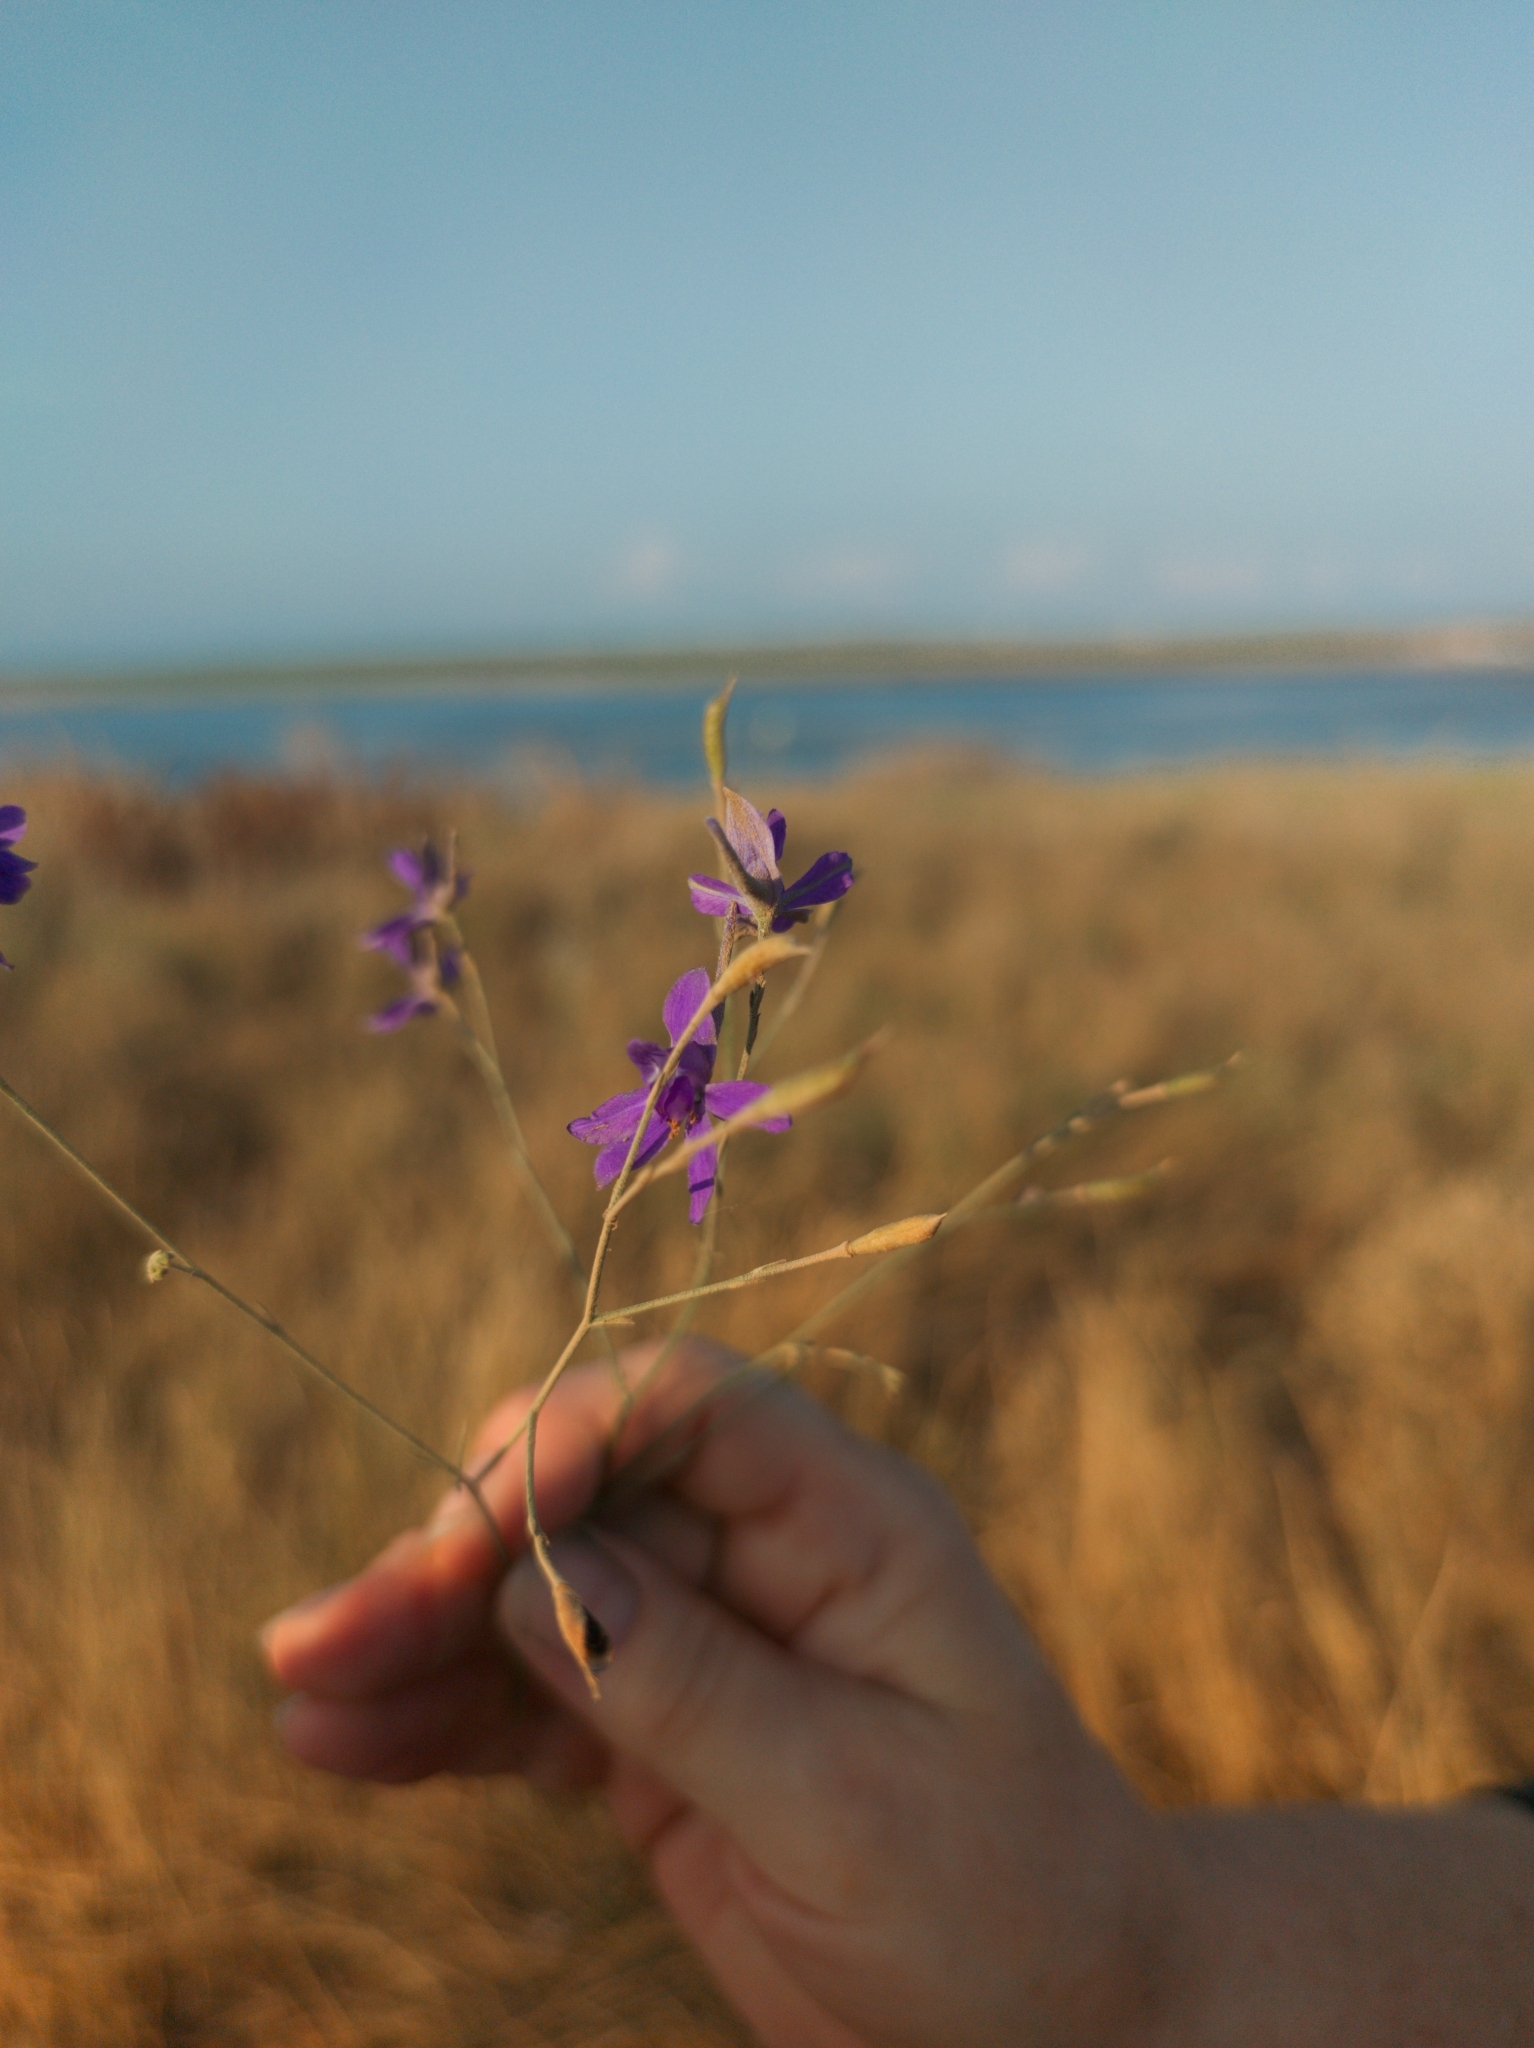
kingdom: Plantae
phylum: Tracheophyta
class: Magnoliopsida
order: Ranunculales
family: Ranunculaceae
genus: Delphinium
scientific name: Delphinium consolida
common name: Branching larkspur
